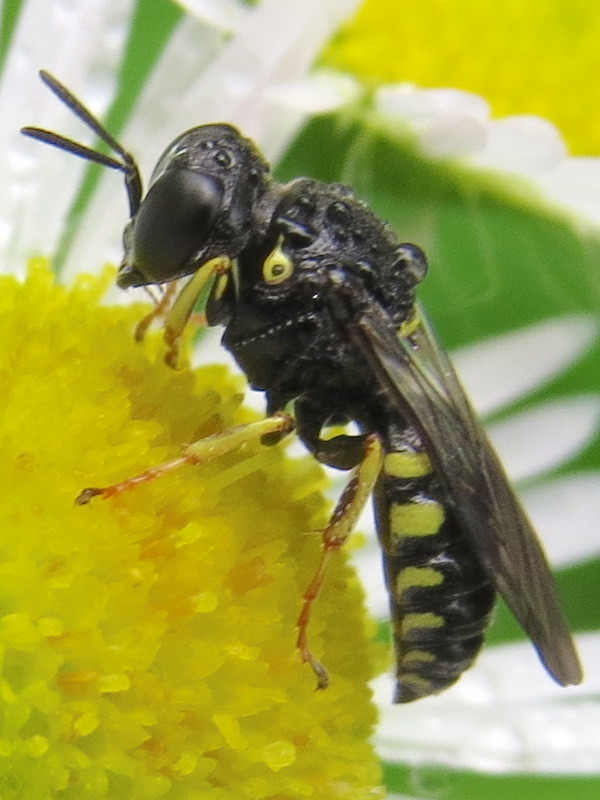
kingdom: Animalia
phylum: Arthropoda
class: Insecta
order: Hymenoptera
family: Crabronidae
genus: Anacrabro
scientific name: Anacrabro ocellatus
